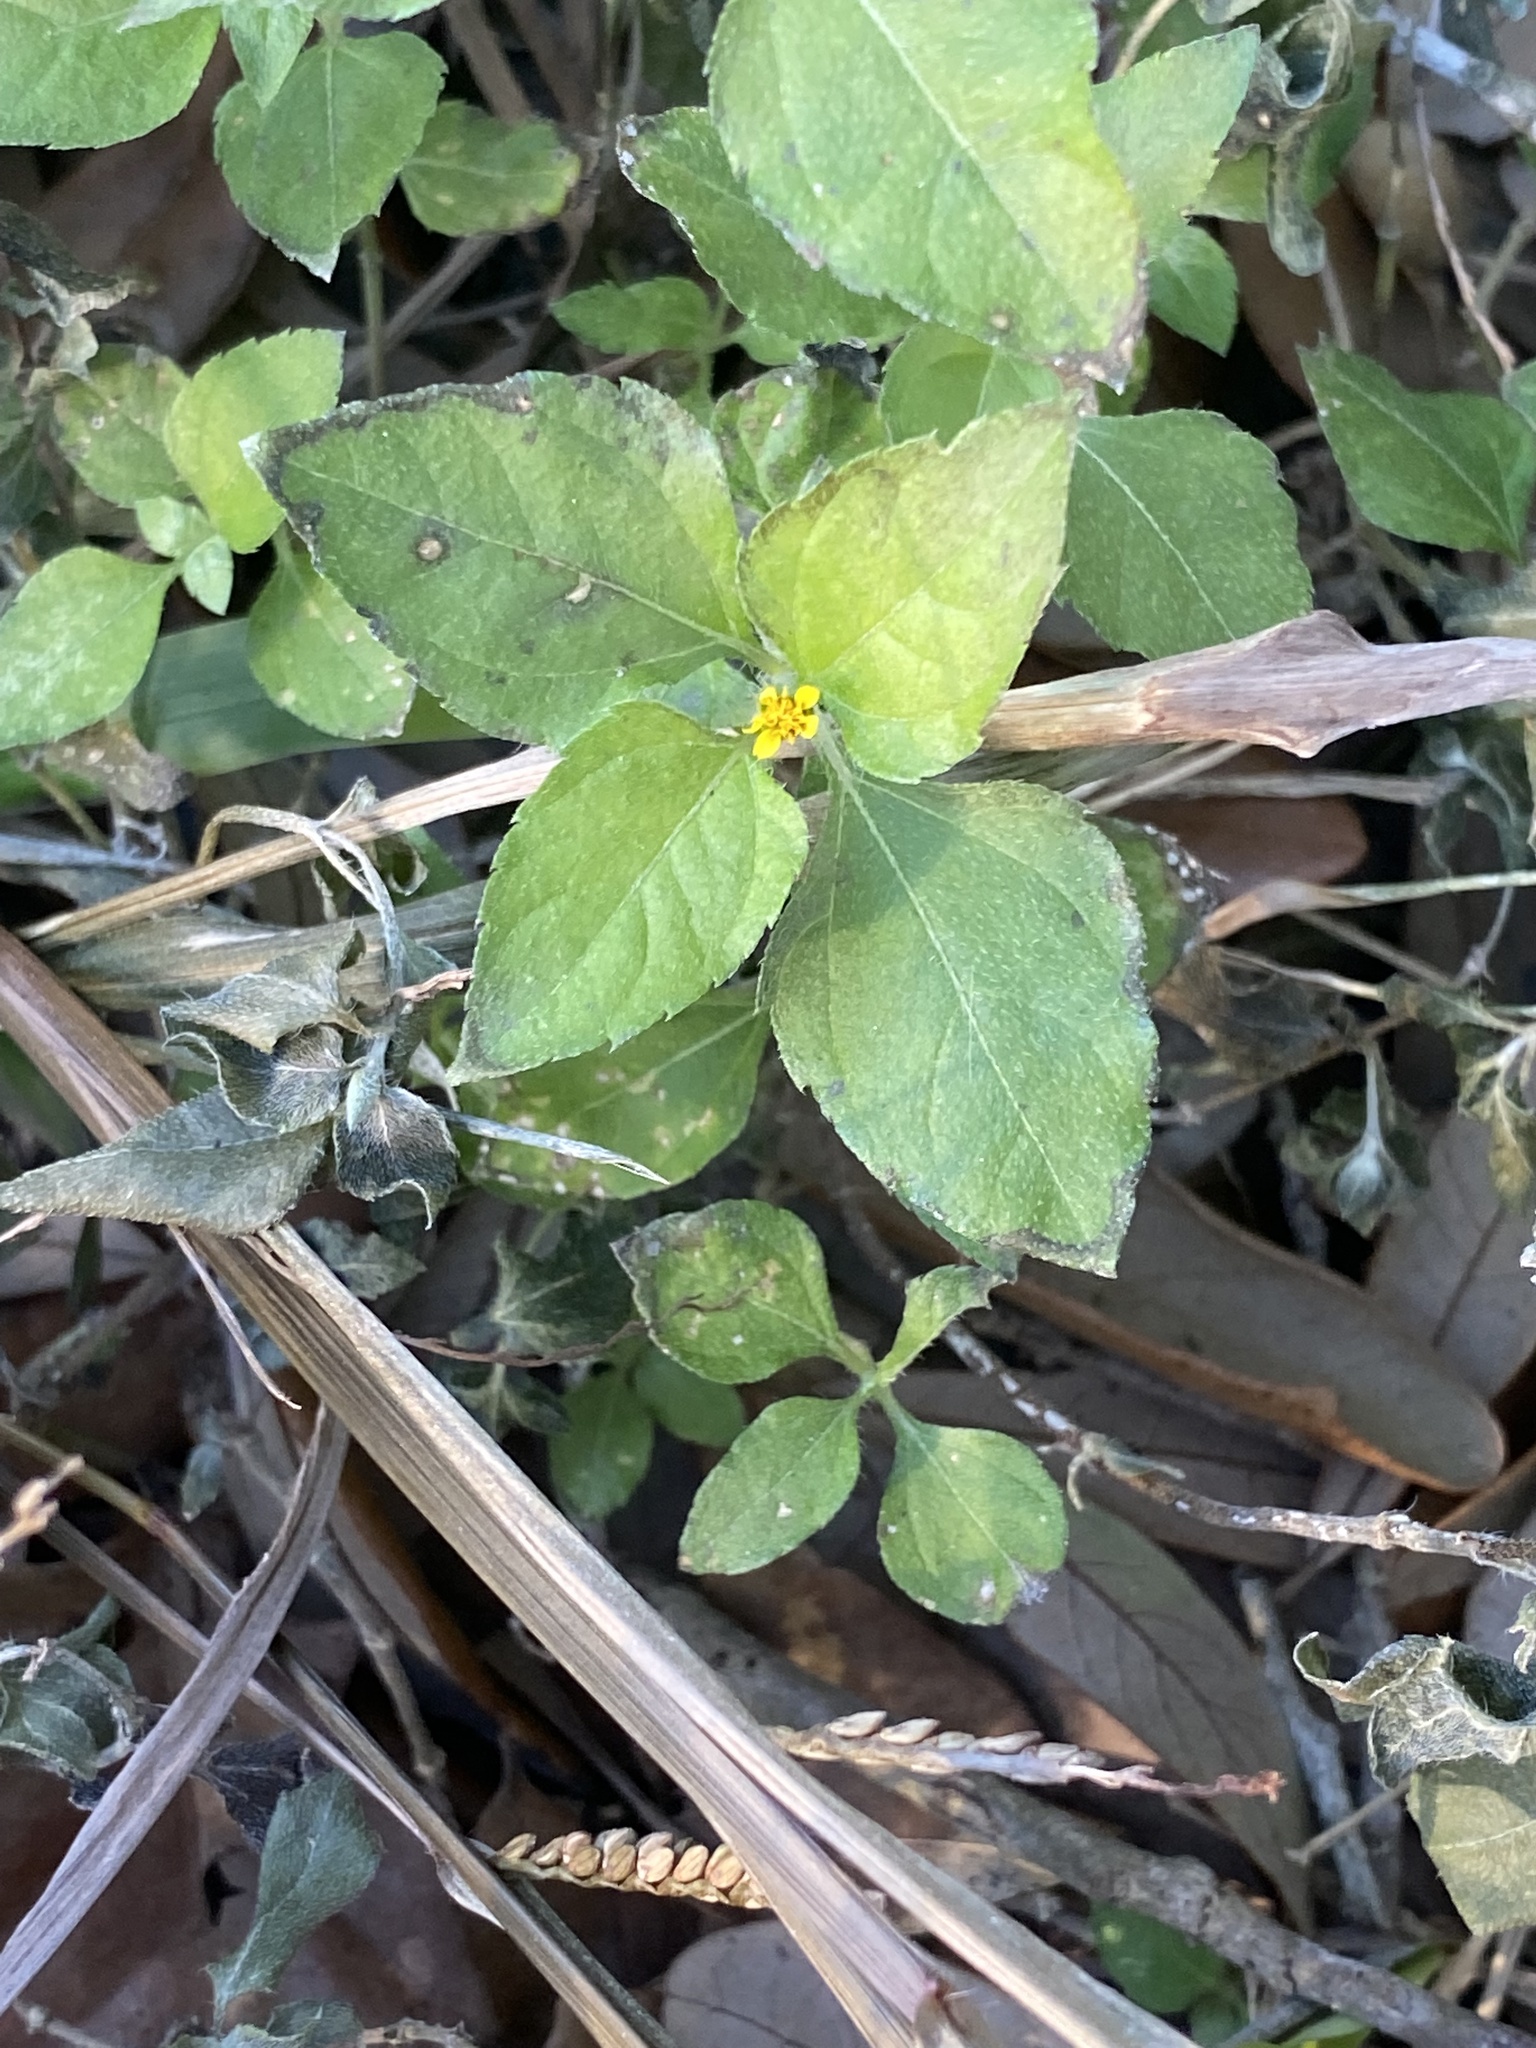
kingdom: Plantae
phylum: Tracheophyta
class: Magnoliopsida
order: Asterales
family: Asteraceae
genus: Calyptocarpus
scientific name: Calyptocarpus vialis
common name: Straggler daisy
